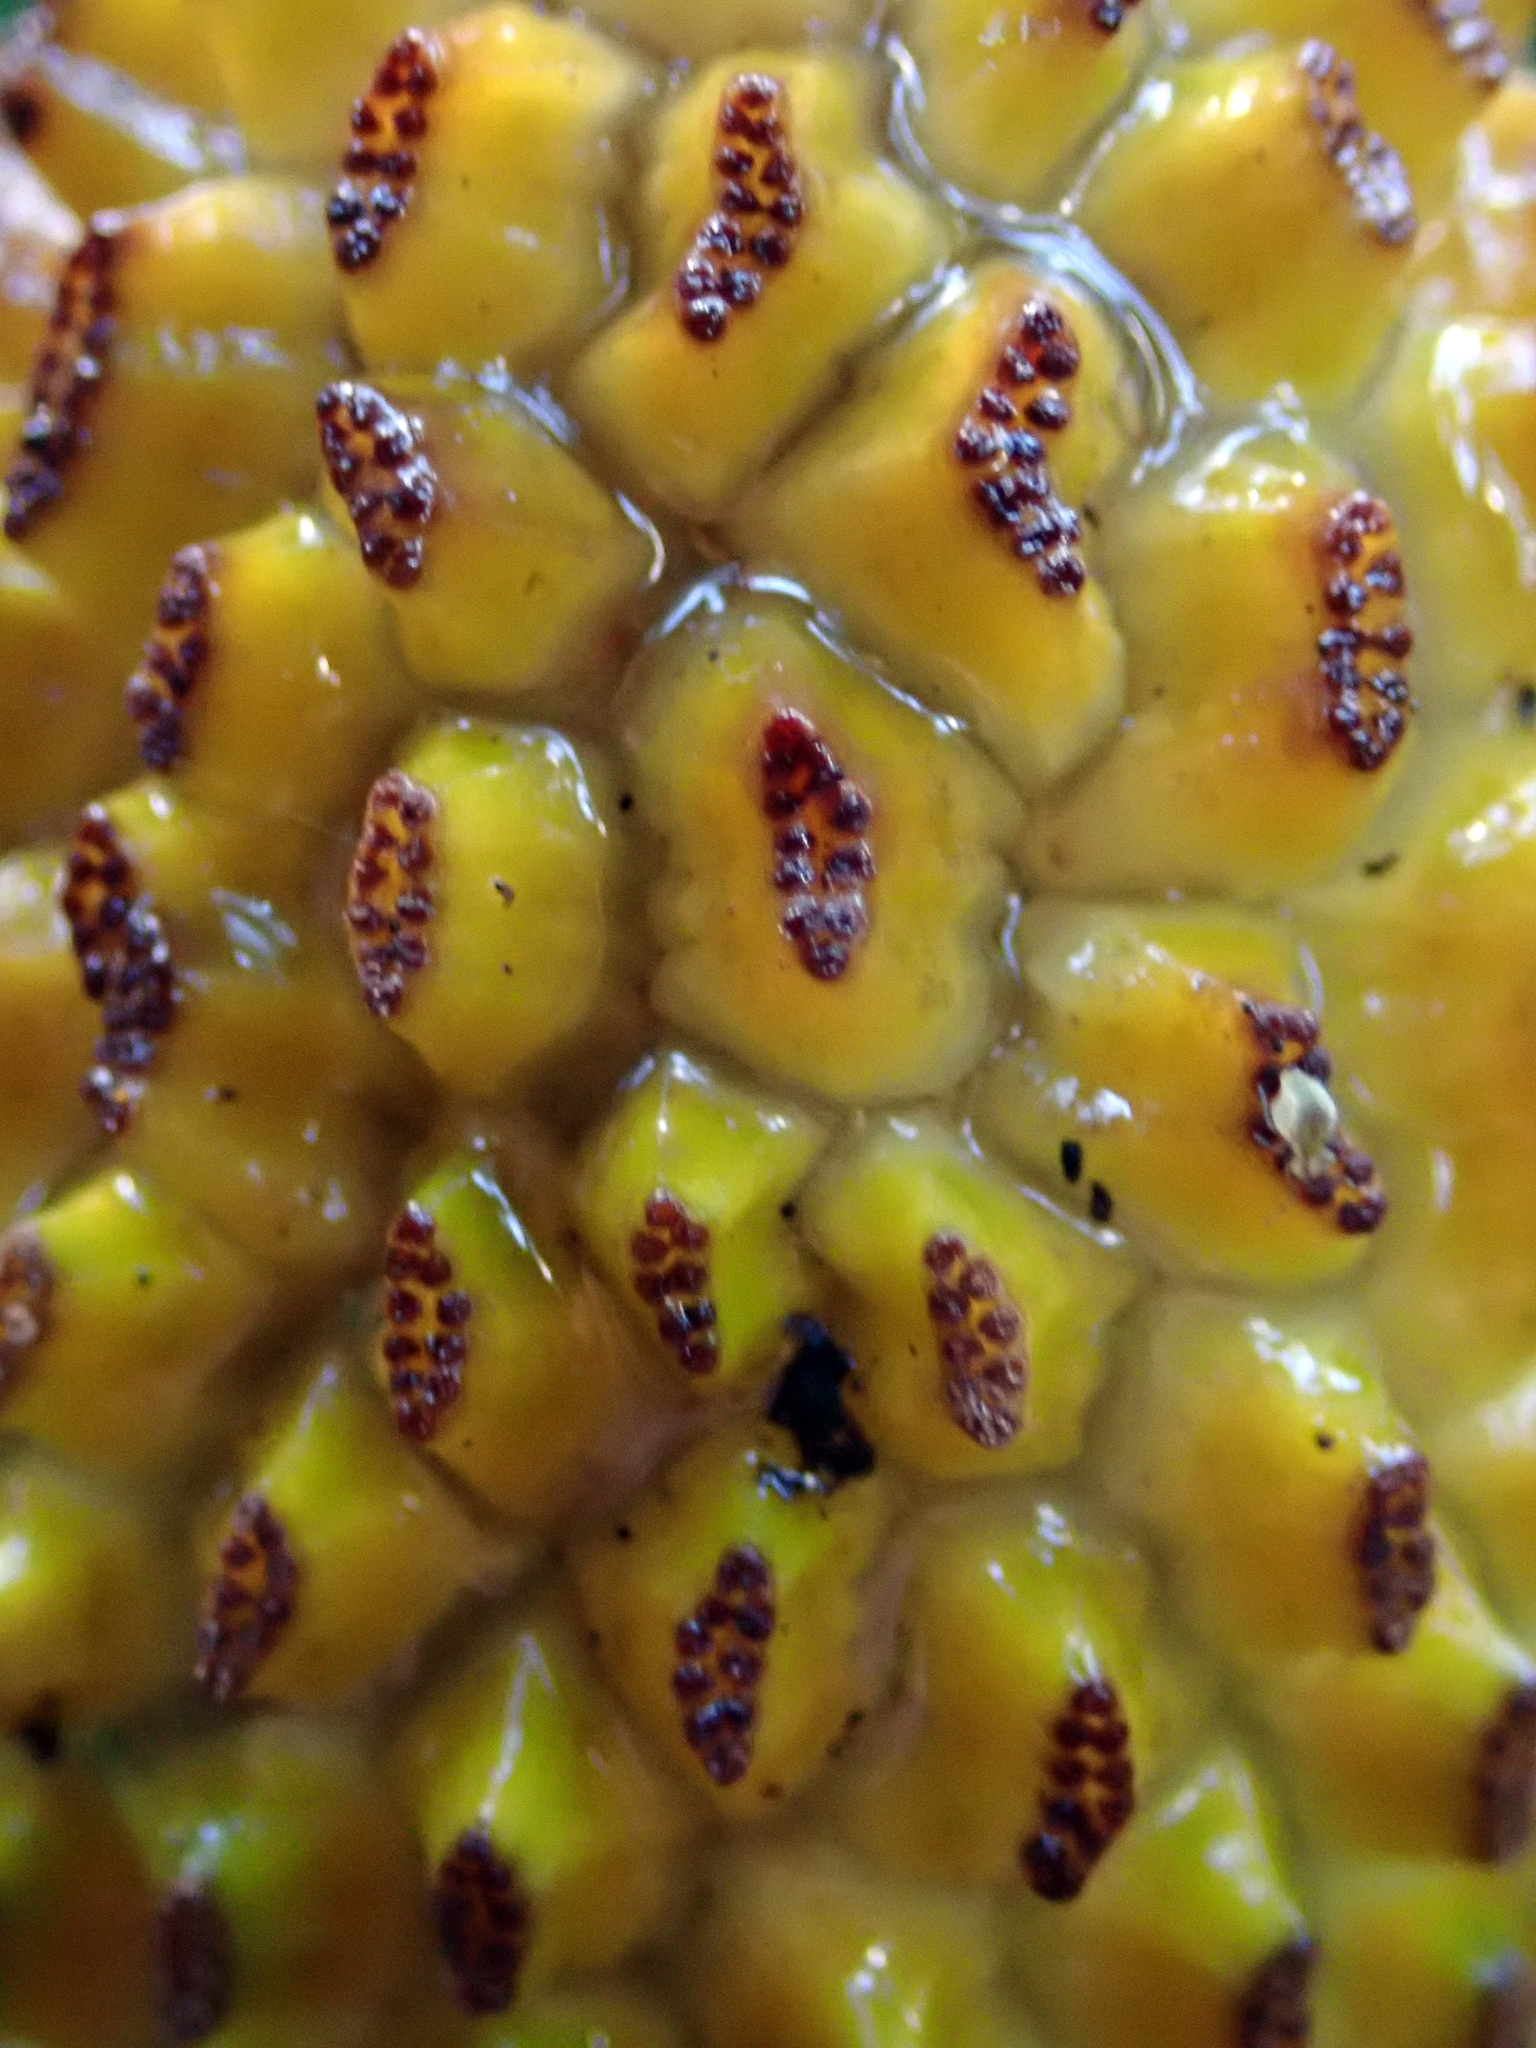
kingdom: Plantae
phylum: Tracheophyta
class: Liliopsida
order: Pandanales
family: Pandanaceae
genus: Freycinetia
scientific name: Freycinetia banksii
